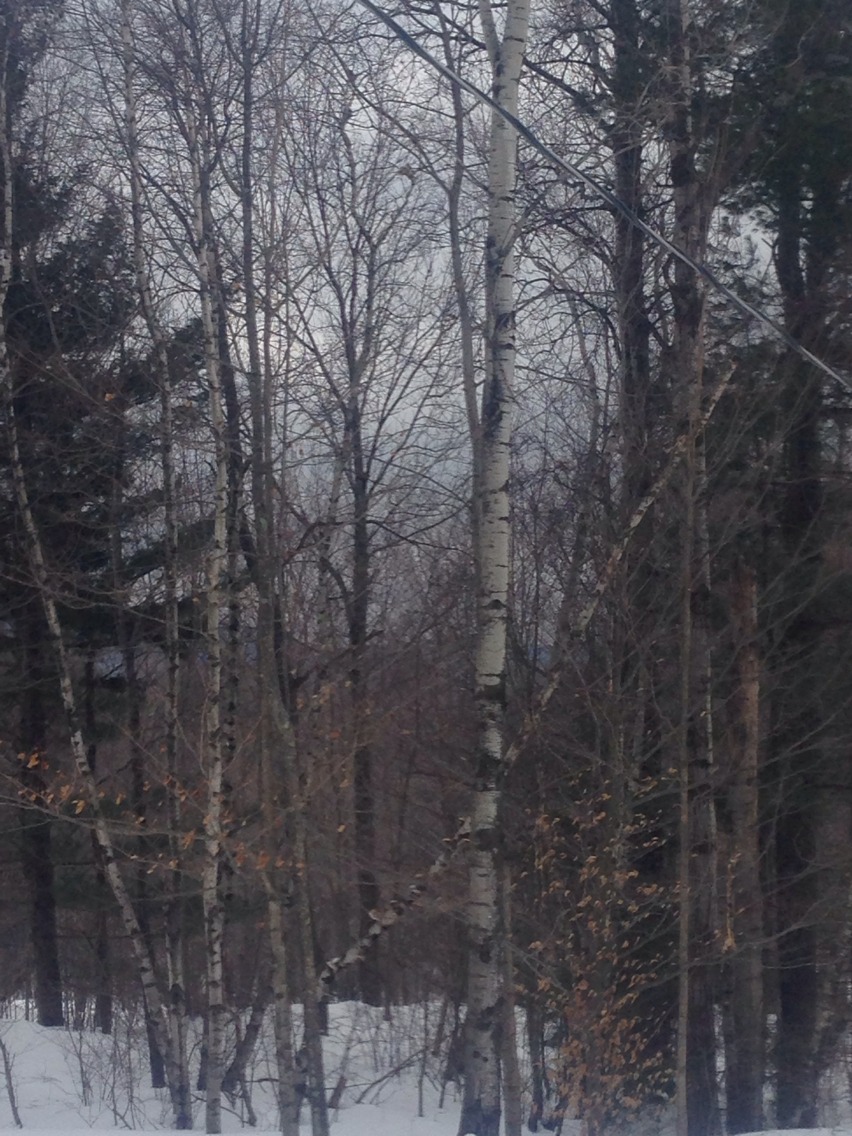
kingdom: Plantae
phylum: Tracheophyta
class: Magnoliopsida
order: Malpighiales
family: Salicaceae
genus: Populus
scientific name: Populus tremuloides
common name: Quaking aspen
